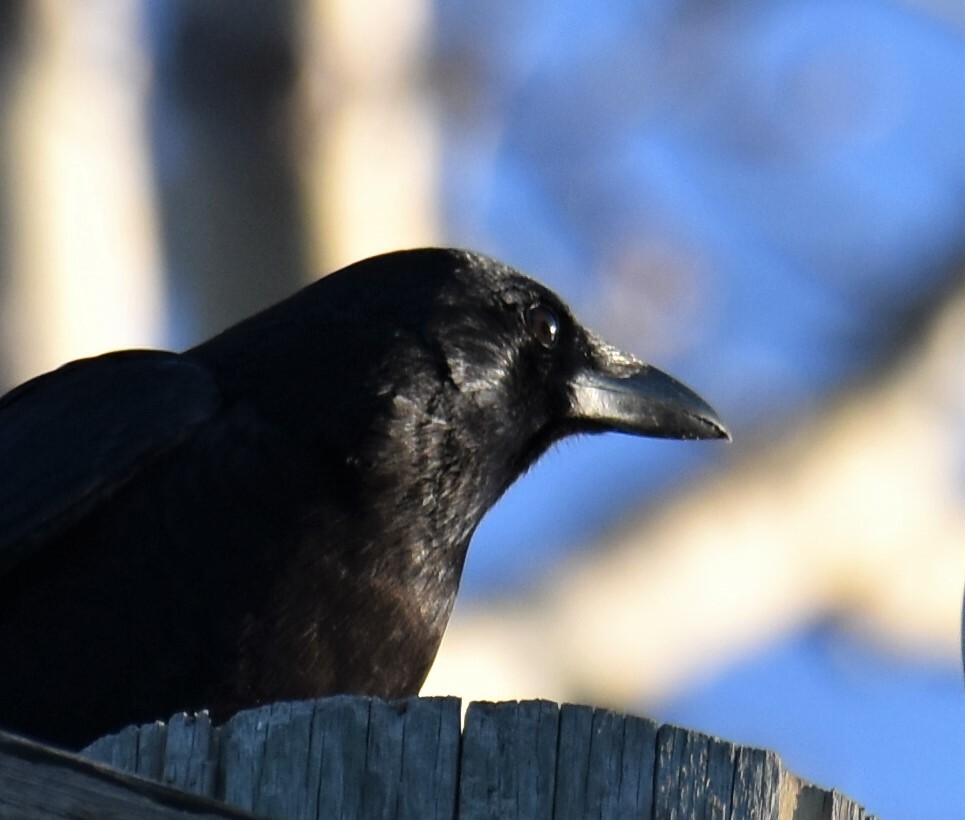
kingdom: Animalia
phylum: Chordata
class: Aves
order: Passeriformes
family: Corvidae
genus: Corvus
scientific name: Corvus brachyrhynchos
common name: American crow
